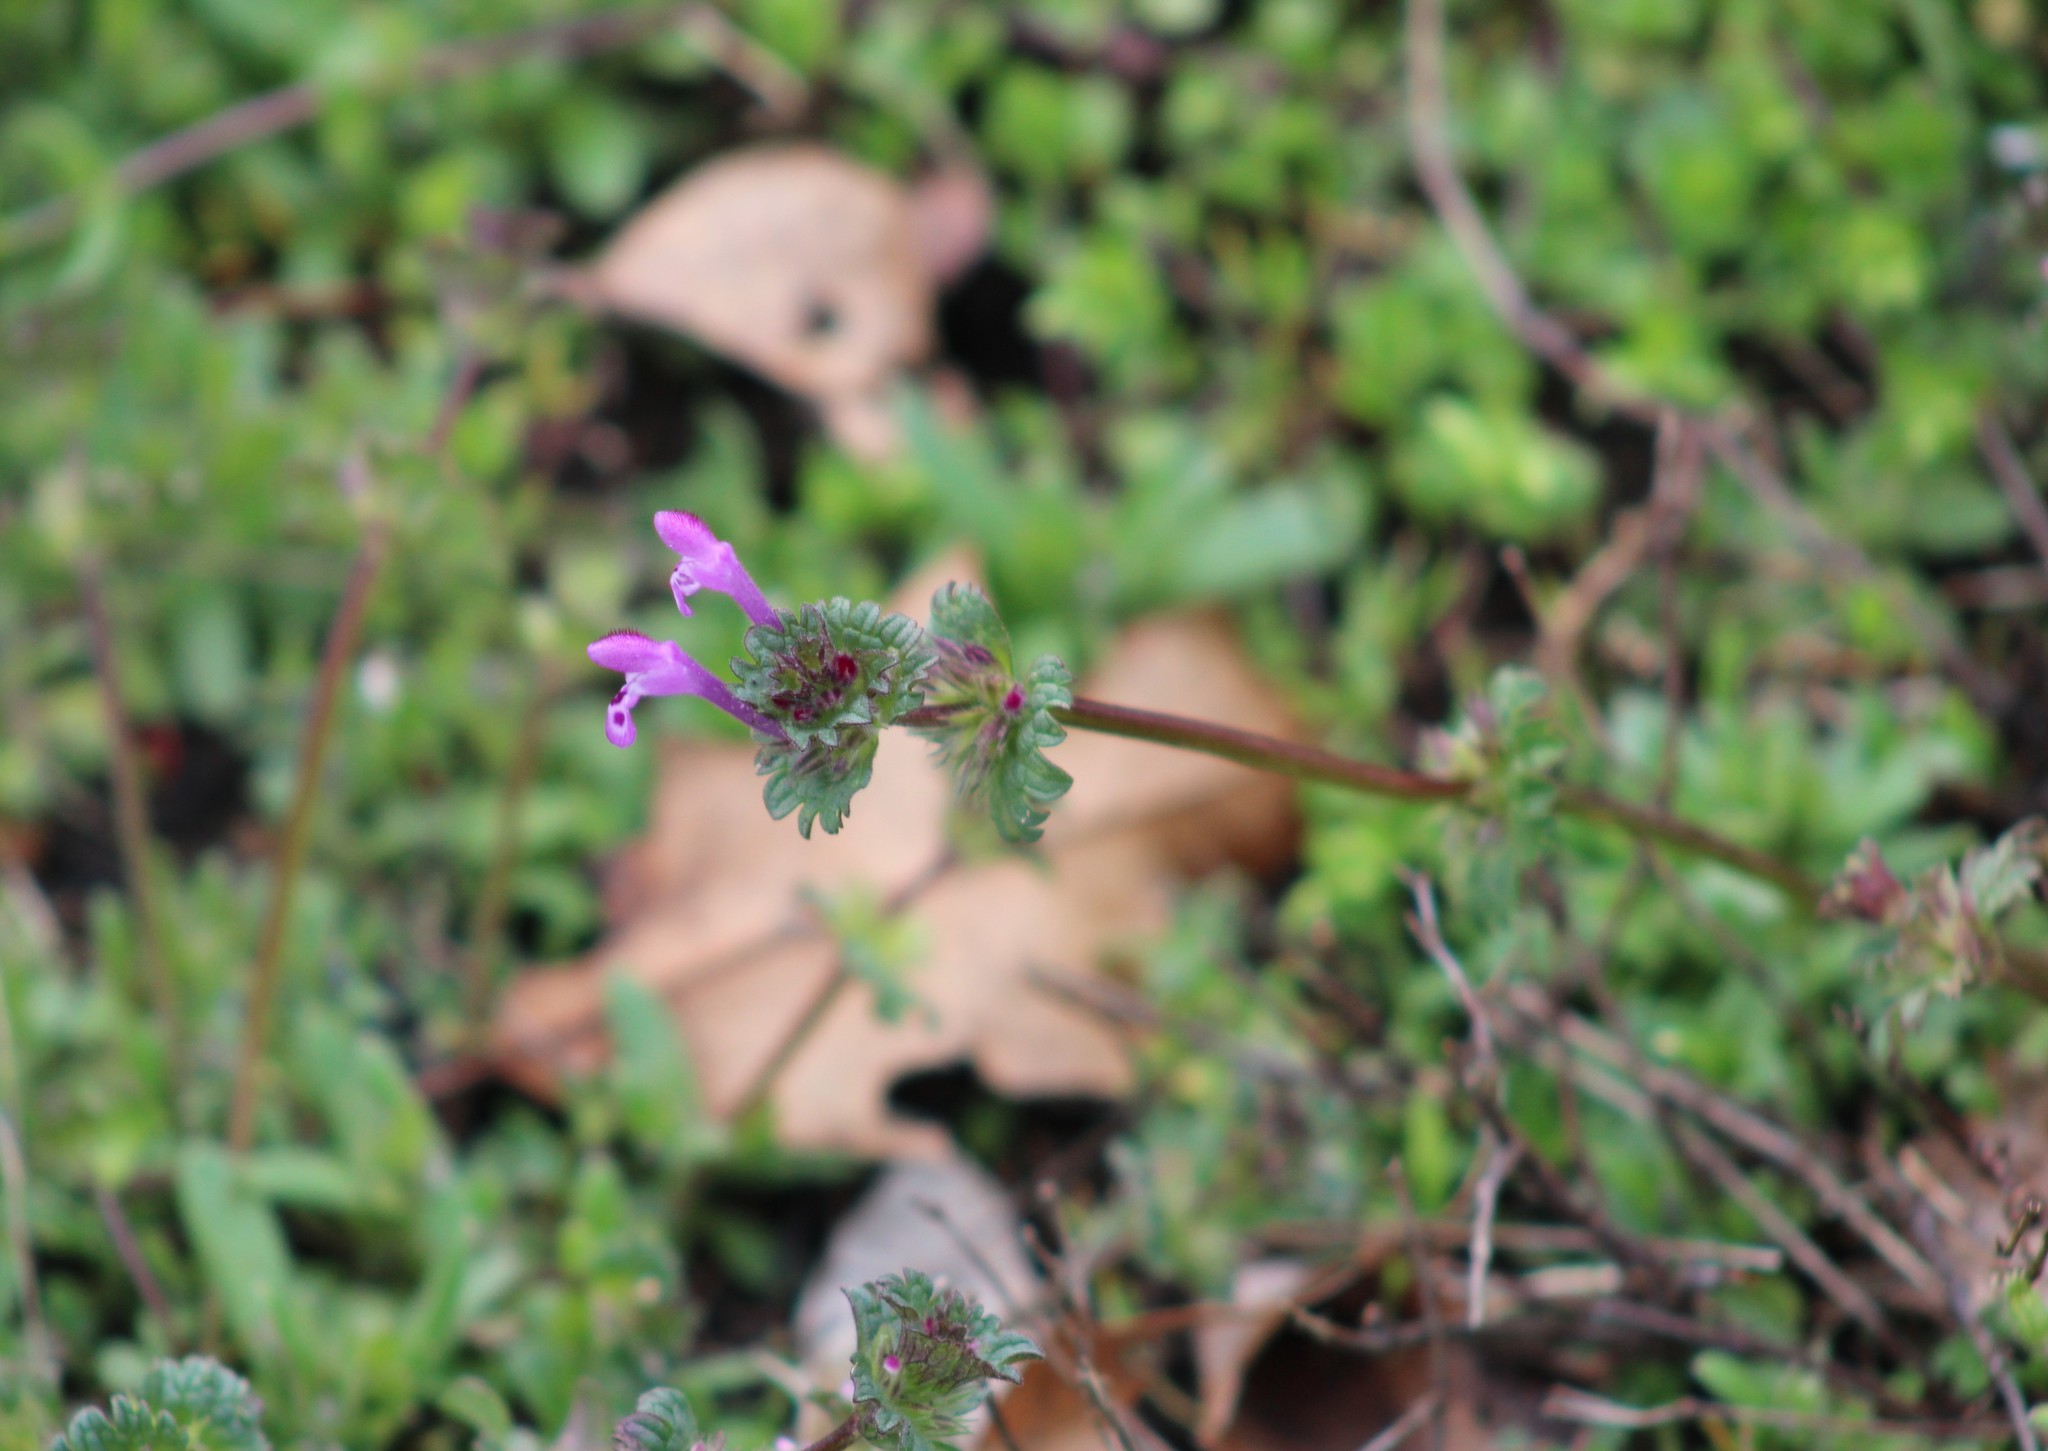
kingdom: Plantae
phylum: Tracheophyta
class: Magnoliopsida
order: Lamiales
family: Lamiaceae
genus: Lamium
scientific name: Lamium amplexicaule
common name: Henbit dead-nettle
